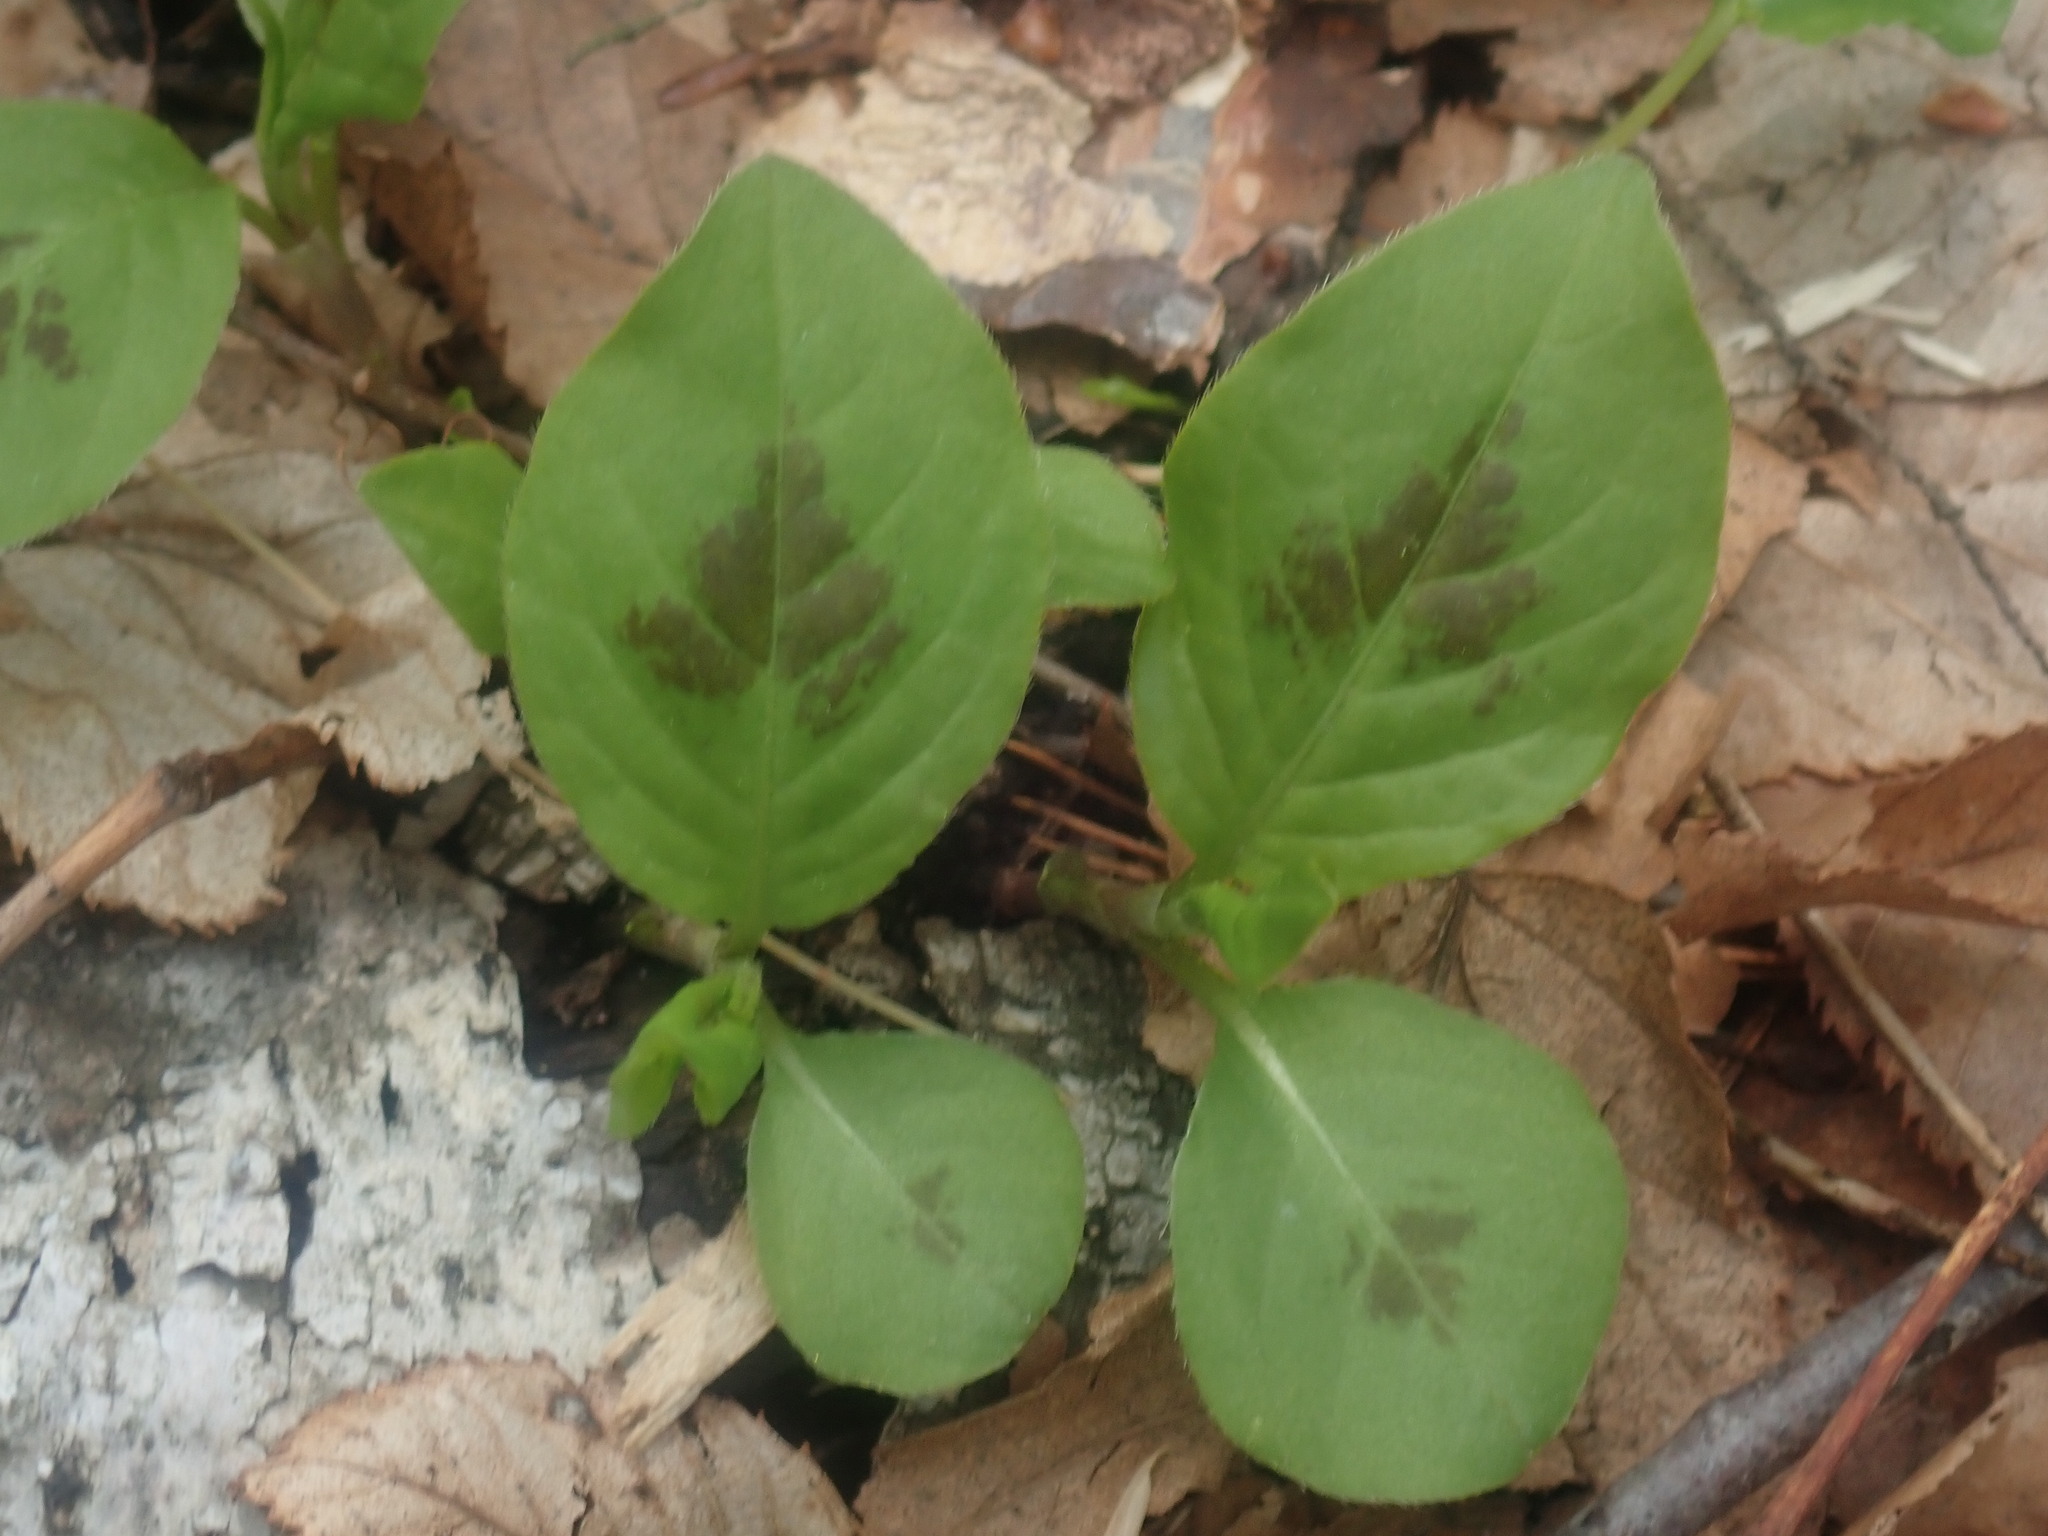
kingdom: Plantae
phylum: Tracheophyta
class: Magnoliopsida
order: Caryophyllales
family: Polygonaceae
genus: Persicaria
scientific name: Persicaria virginiana
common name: Jumpseed
